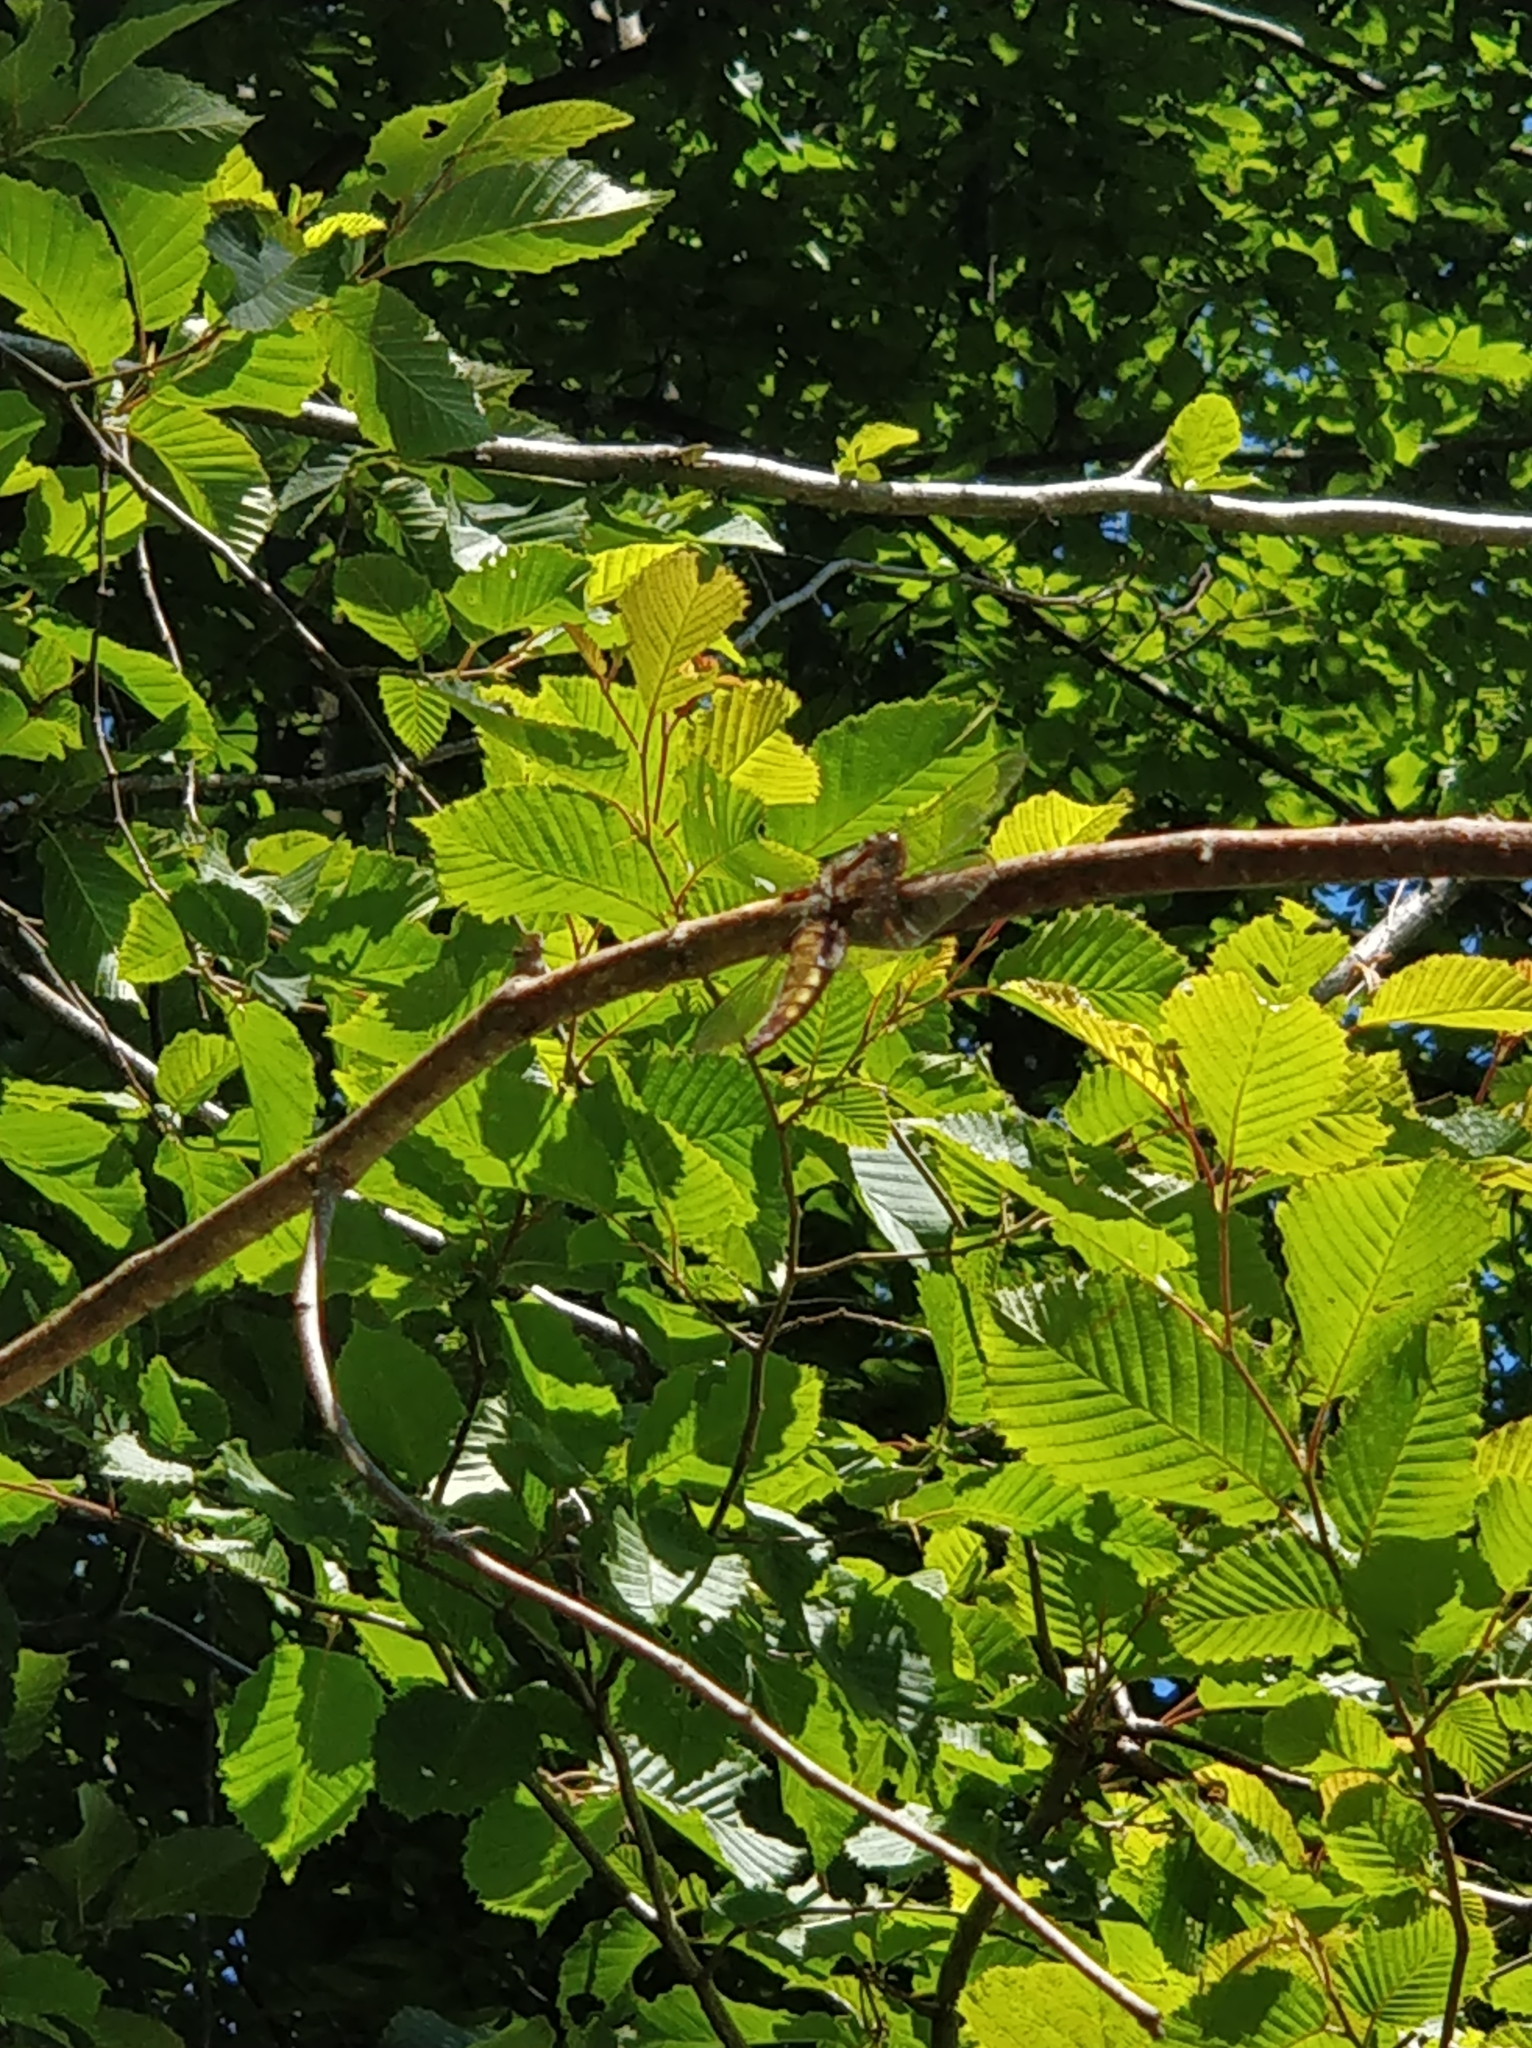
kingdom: Animalia
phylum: Arthropoda
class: Insecta
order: Odonata
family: Libellulidae
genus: Libellula
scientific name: Libellula depressa
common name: Broad-bodied chaser
